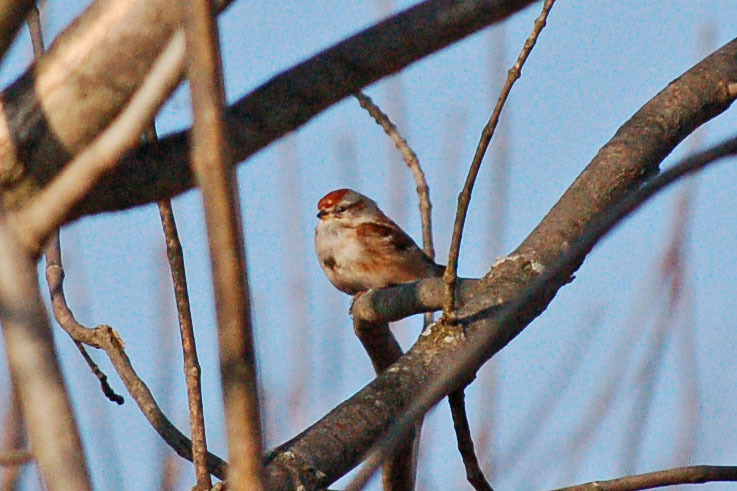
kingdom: Animalia
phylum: Chordata
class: Aves
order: Passeriformes
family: Passerellidae
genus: Spizelloides
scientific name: Spizelloides arborea
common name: American tree sparrow
